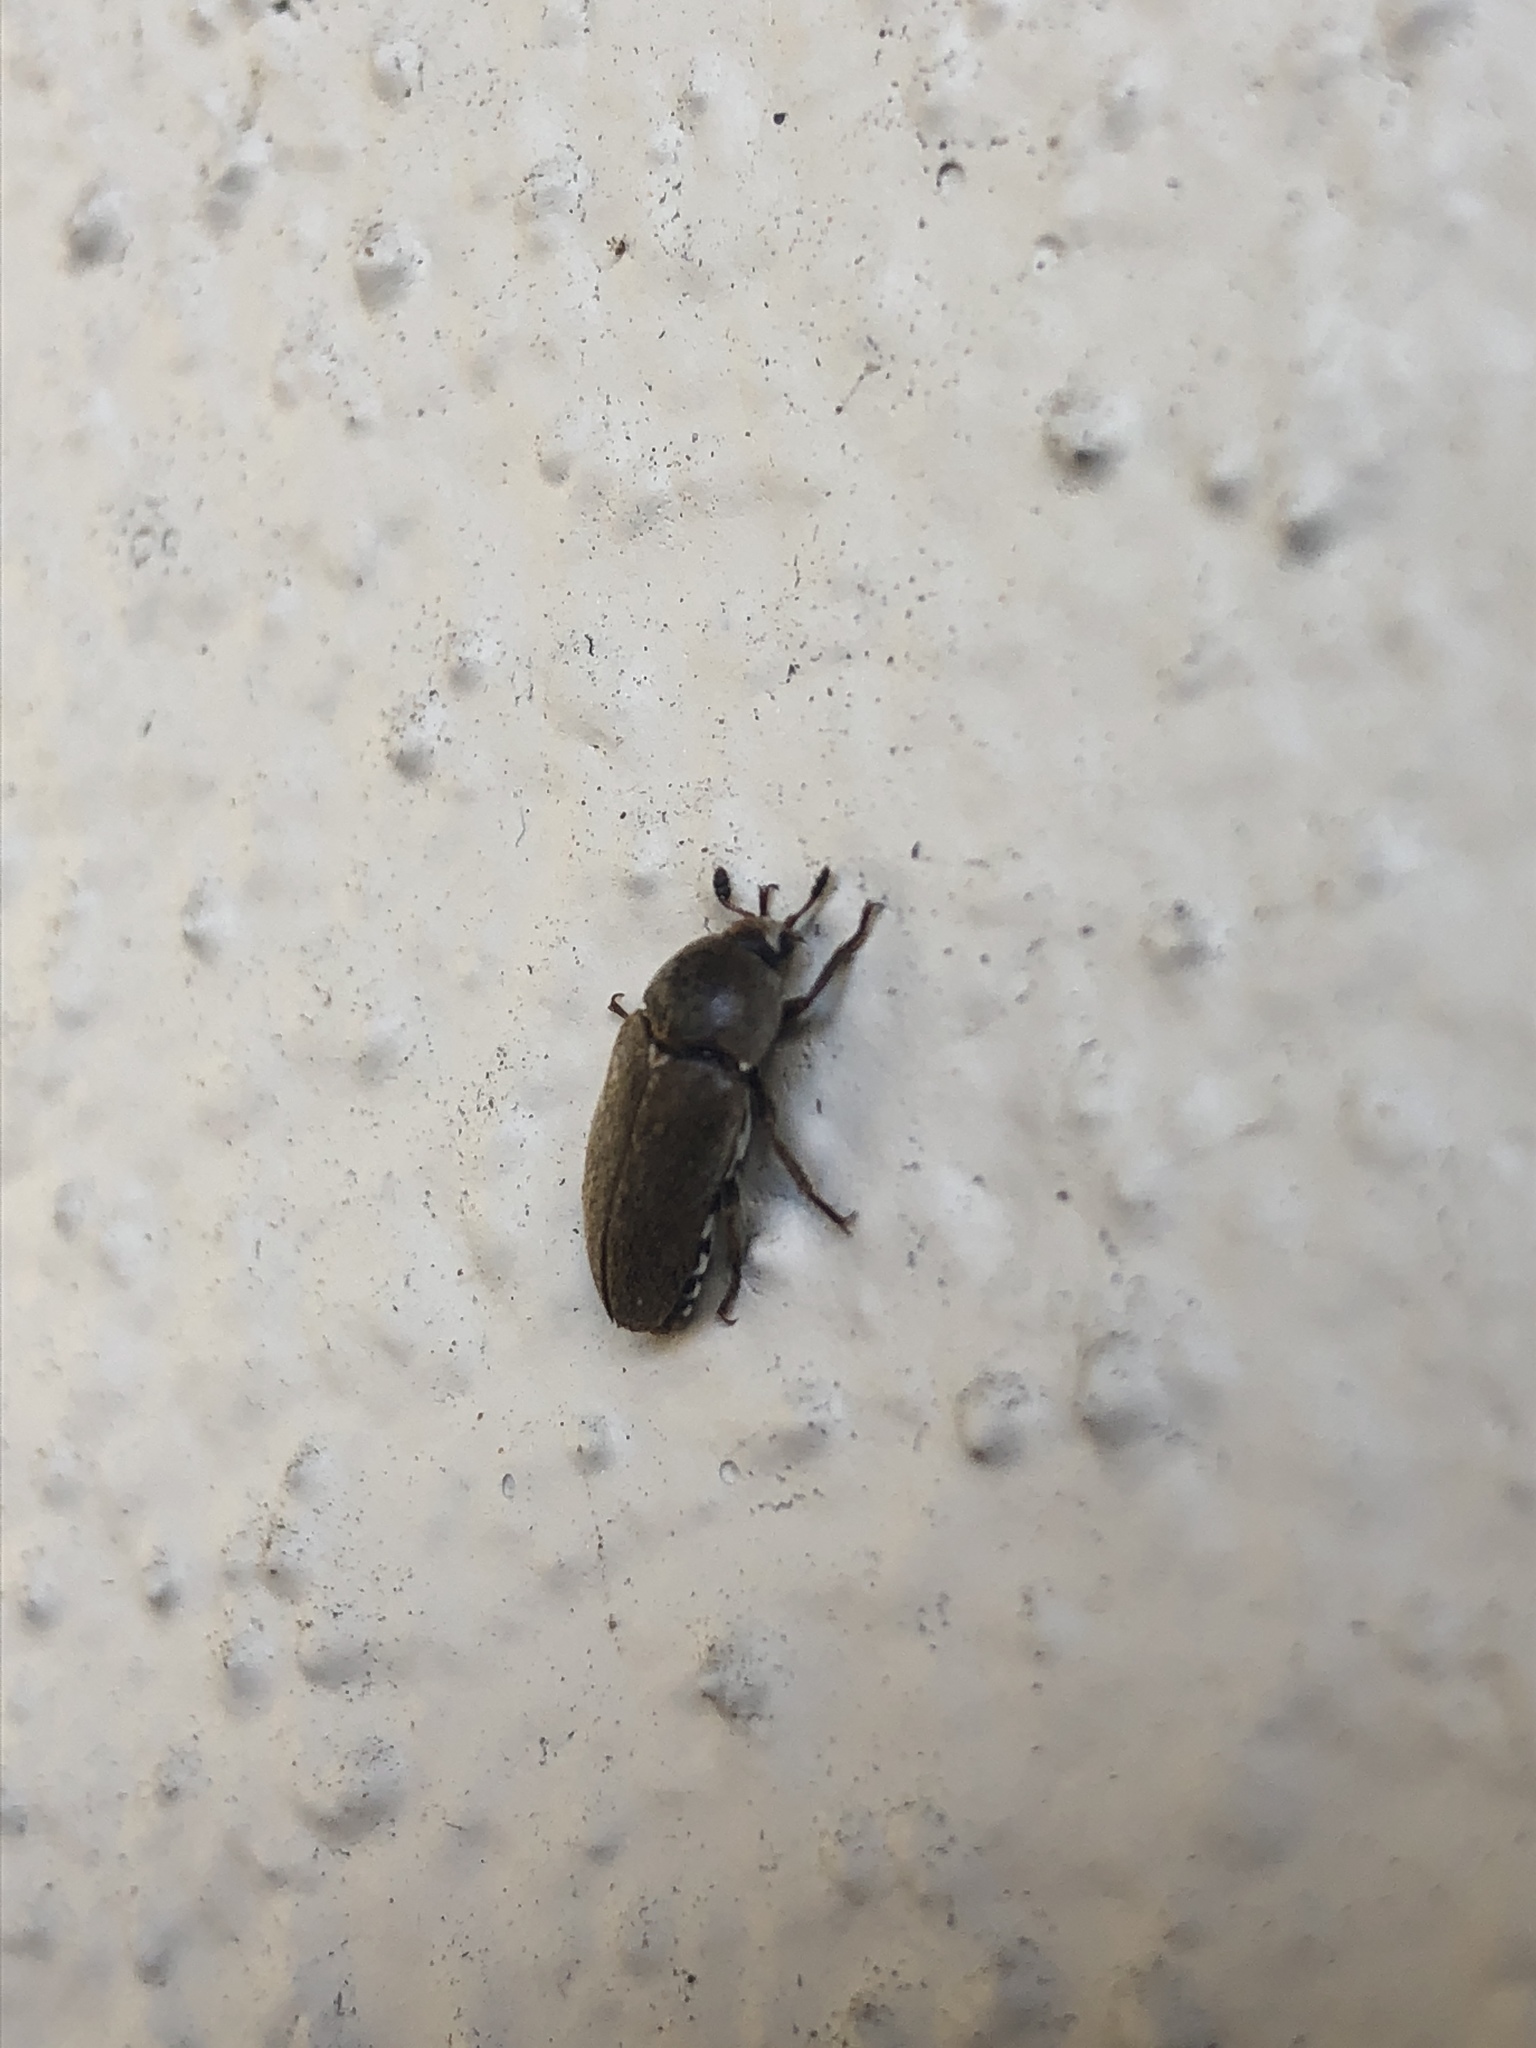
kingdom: Animalia
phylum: Arthropoda
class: Insecta
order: Coleoptera
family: Dermestidae
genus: Dermestes
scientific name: Dermestes maculatus
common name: Hide beetle
